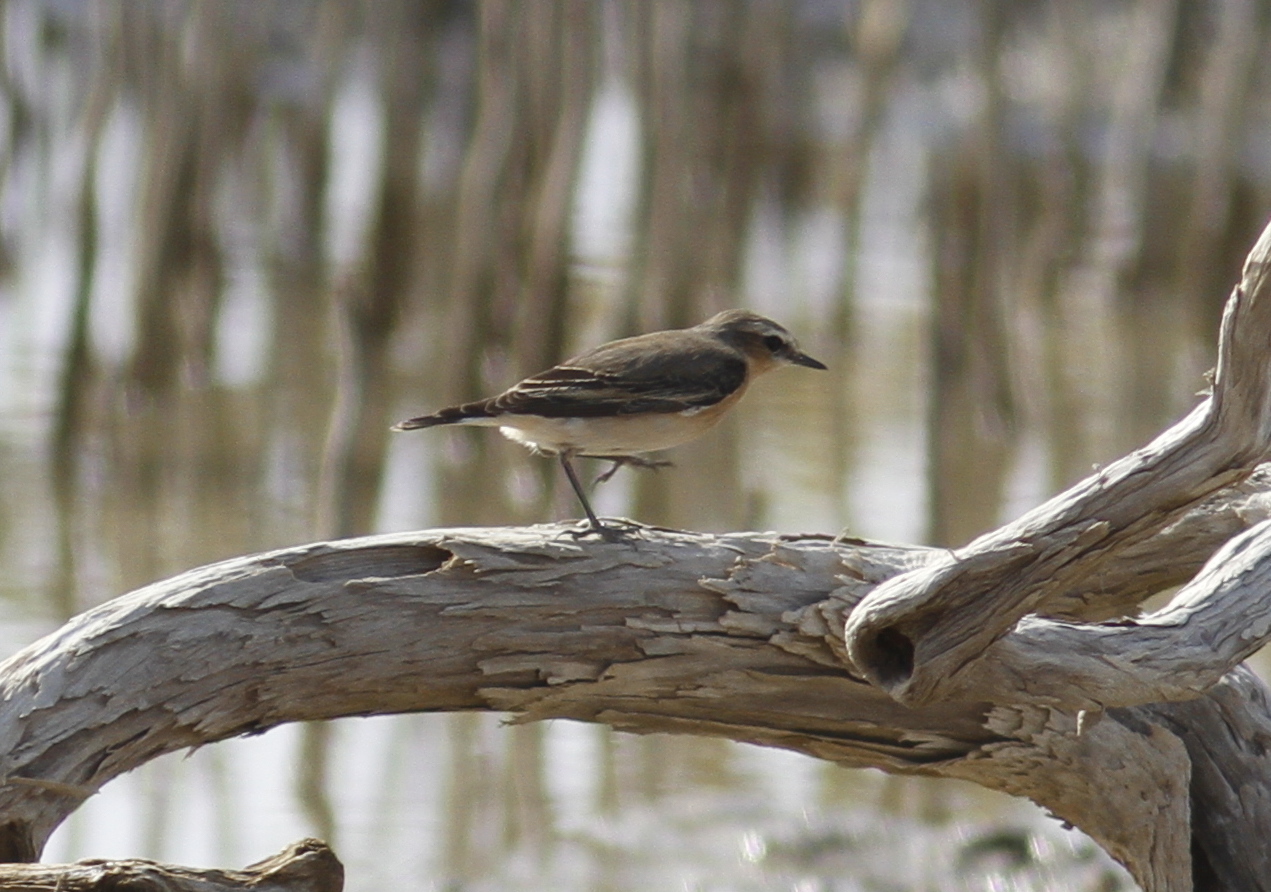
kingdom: Animalia
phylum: Chordata
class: Aves
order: Passeriformes
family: Muscicapidae
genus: Oenanthe
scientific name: Oenanthe oenanthe
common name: Northern wheatear
